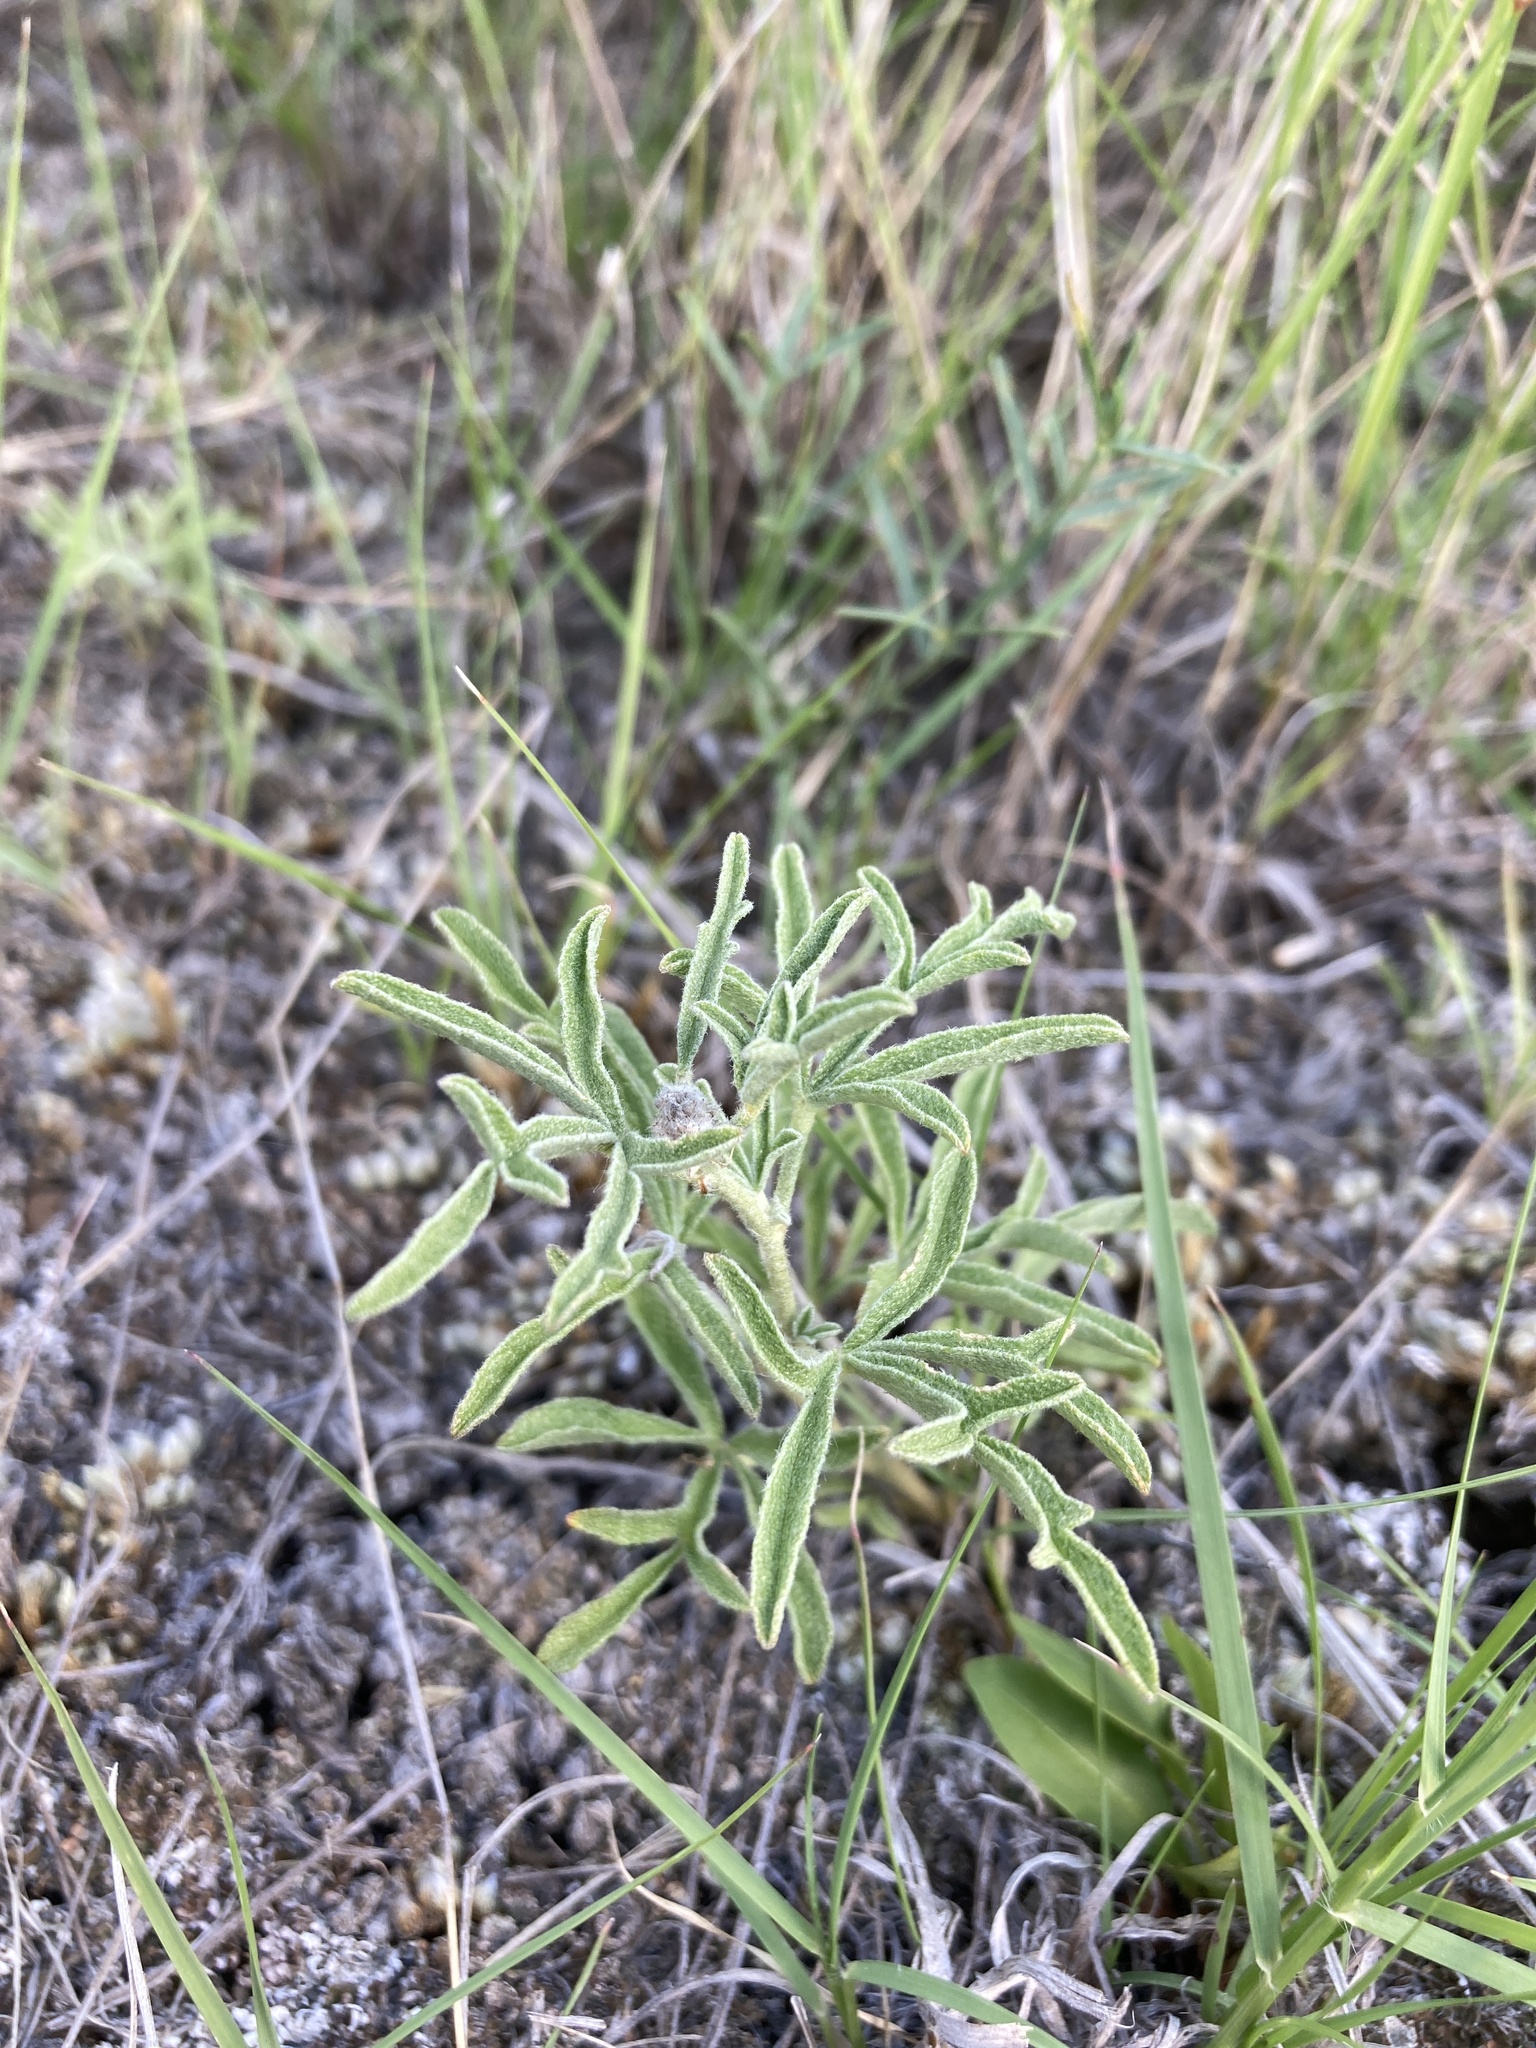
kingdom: Plantae
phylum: Tracheophyta
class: Magnoliopsida
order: Malvales
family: Malvaceae
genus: Sphaeralcea
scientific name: Sphaeralcea coccinea
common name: Moss-rose
